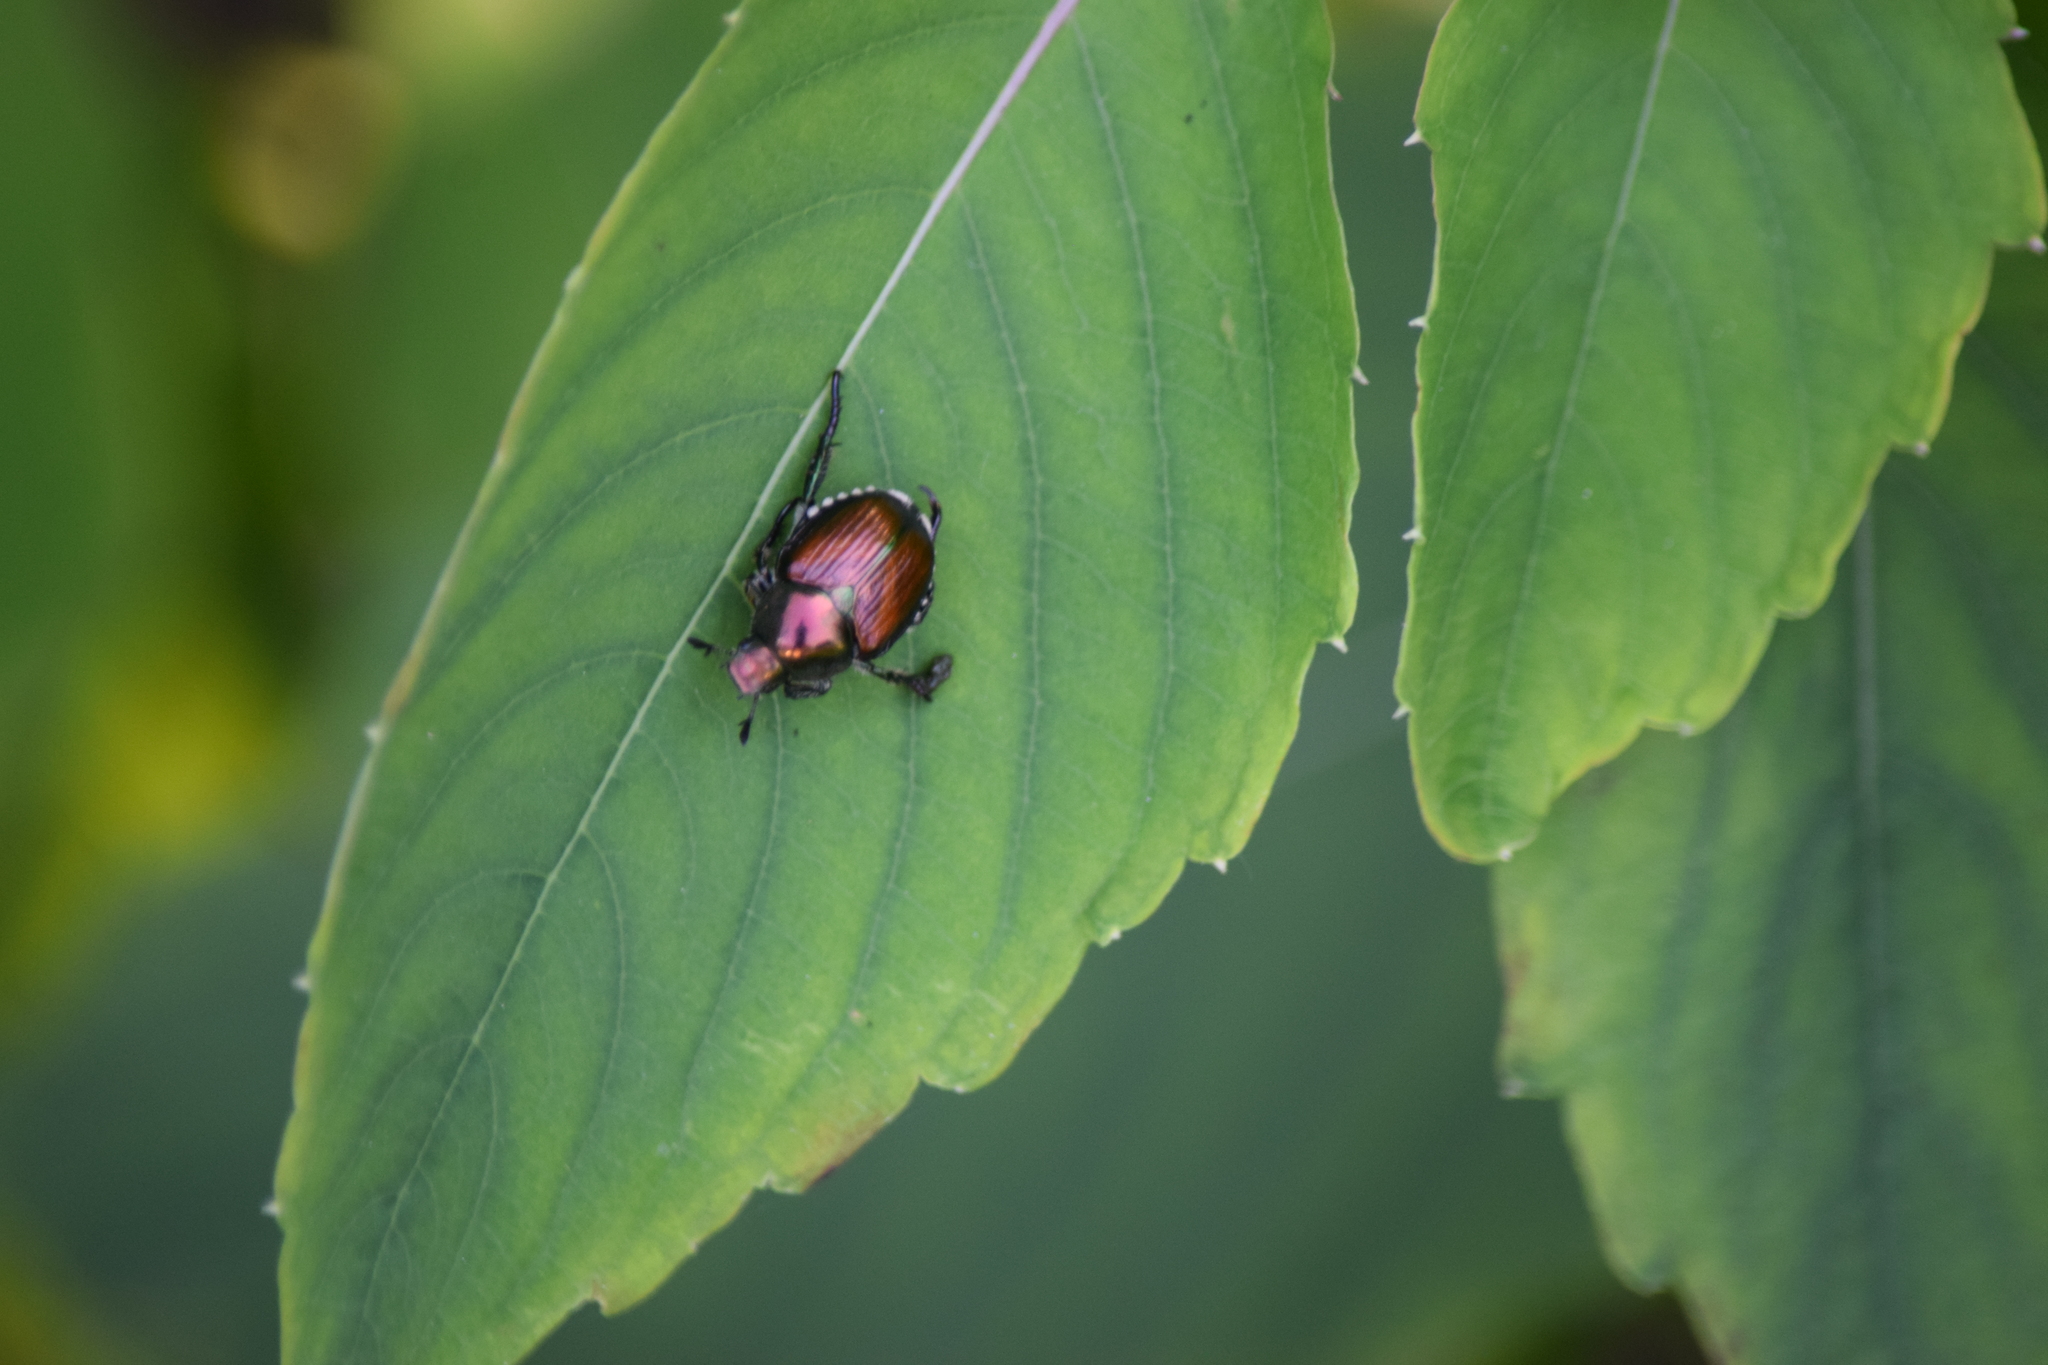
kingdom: Animalia
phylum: Arthropoda
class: Insecta
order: Coleoptera
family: Scarabaeidae
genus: Popillia
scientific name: Popillia japonica
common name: Japanese beetle
